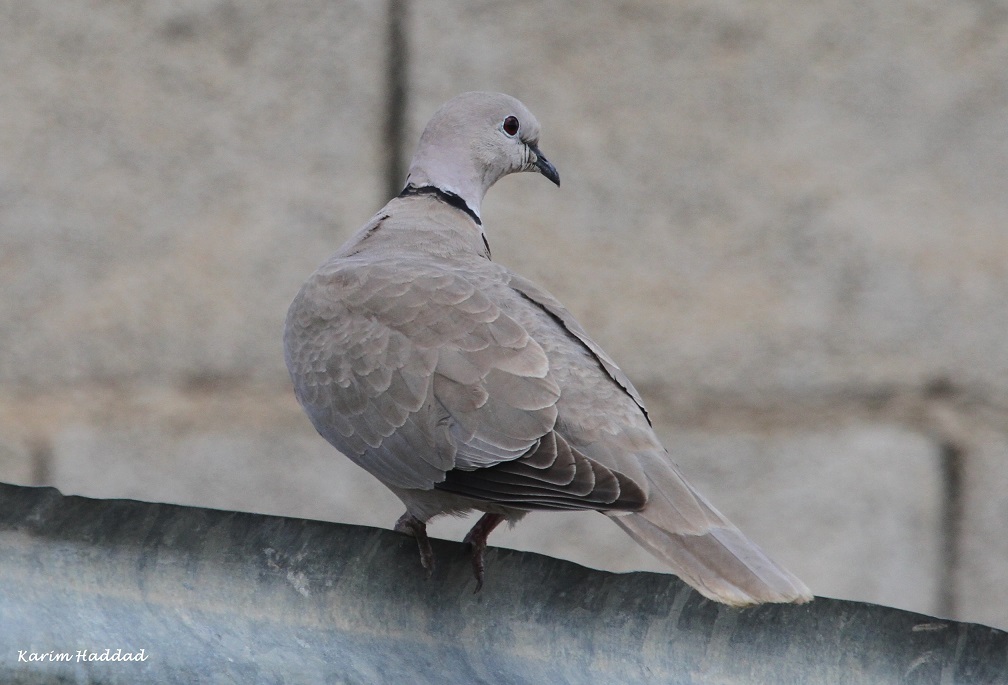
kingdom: Animalia
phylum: Chordata
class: Aves
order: Columbiformes
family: Columbidae
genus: Streptopelia
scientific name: Streptopelia decaocto
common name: Eurasian collared dove
